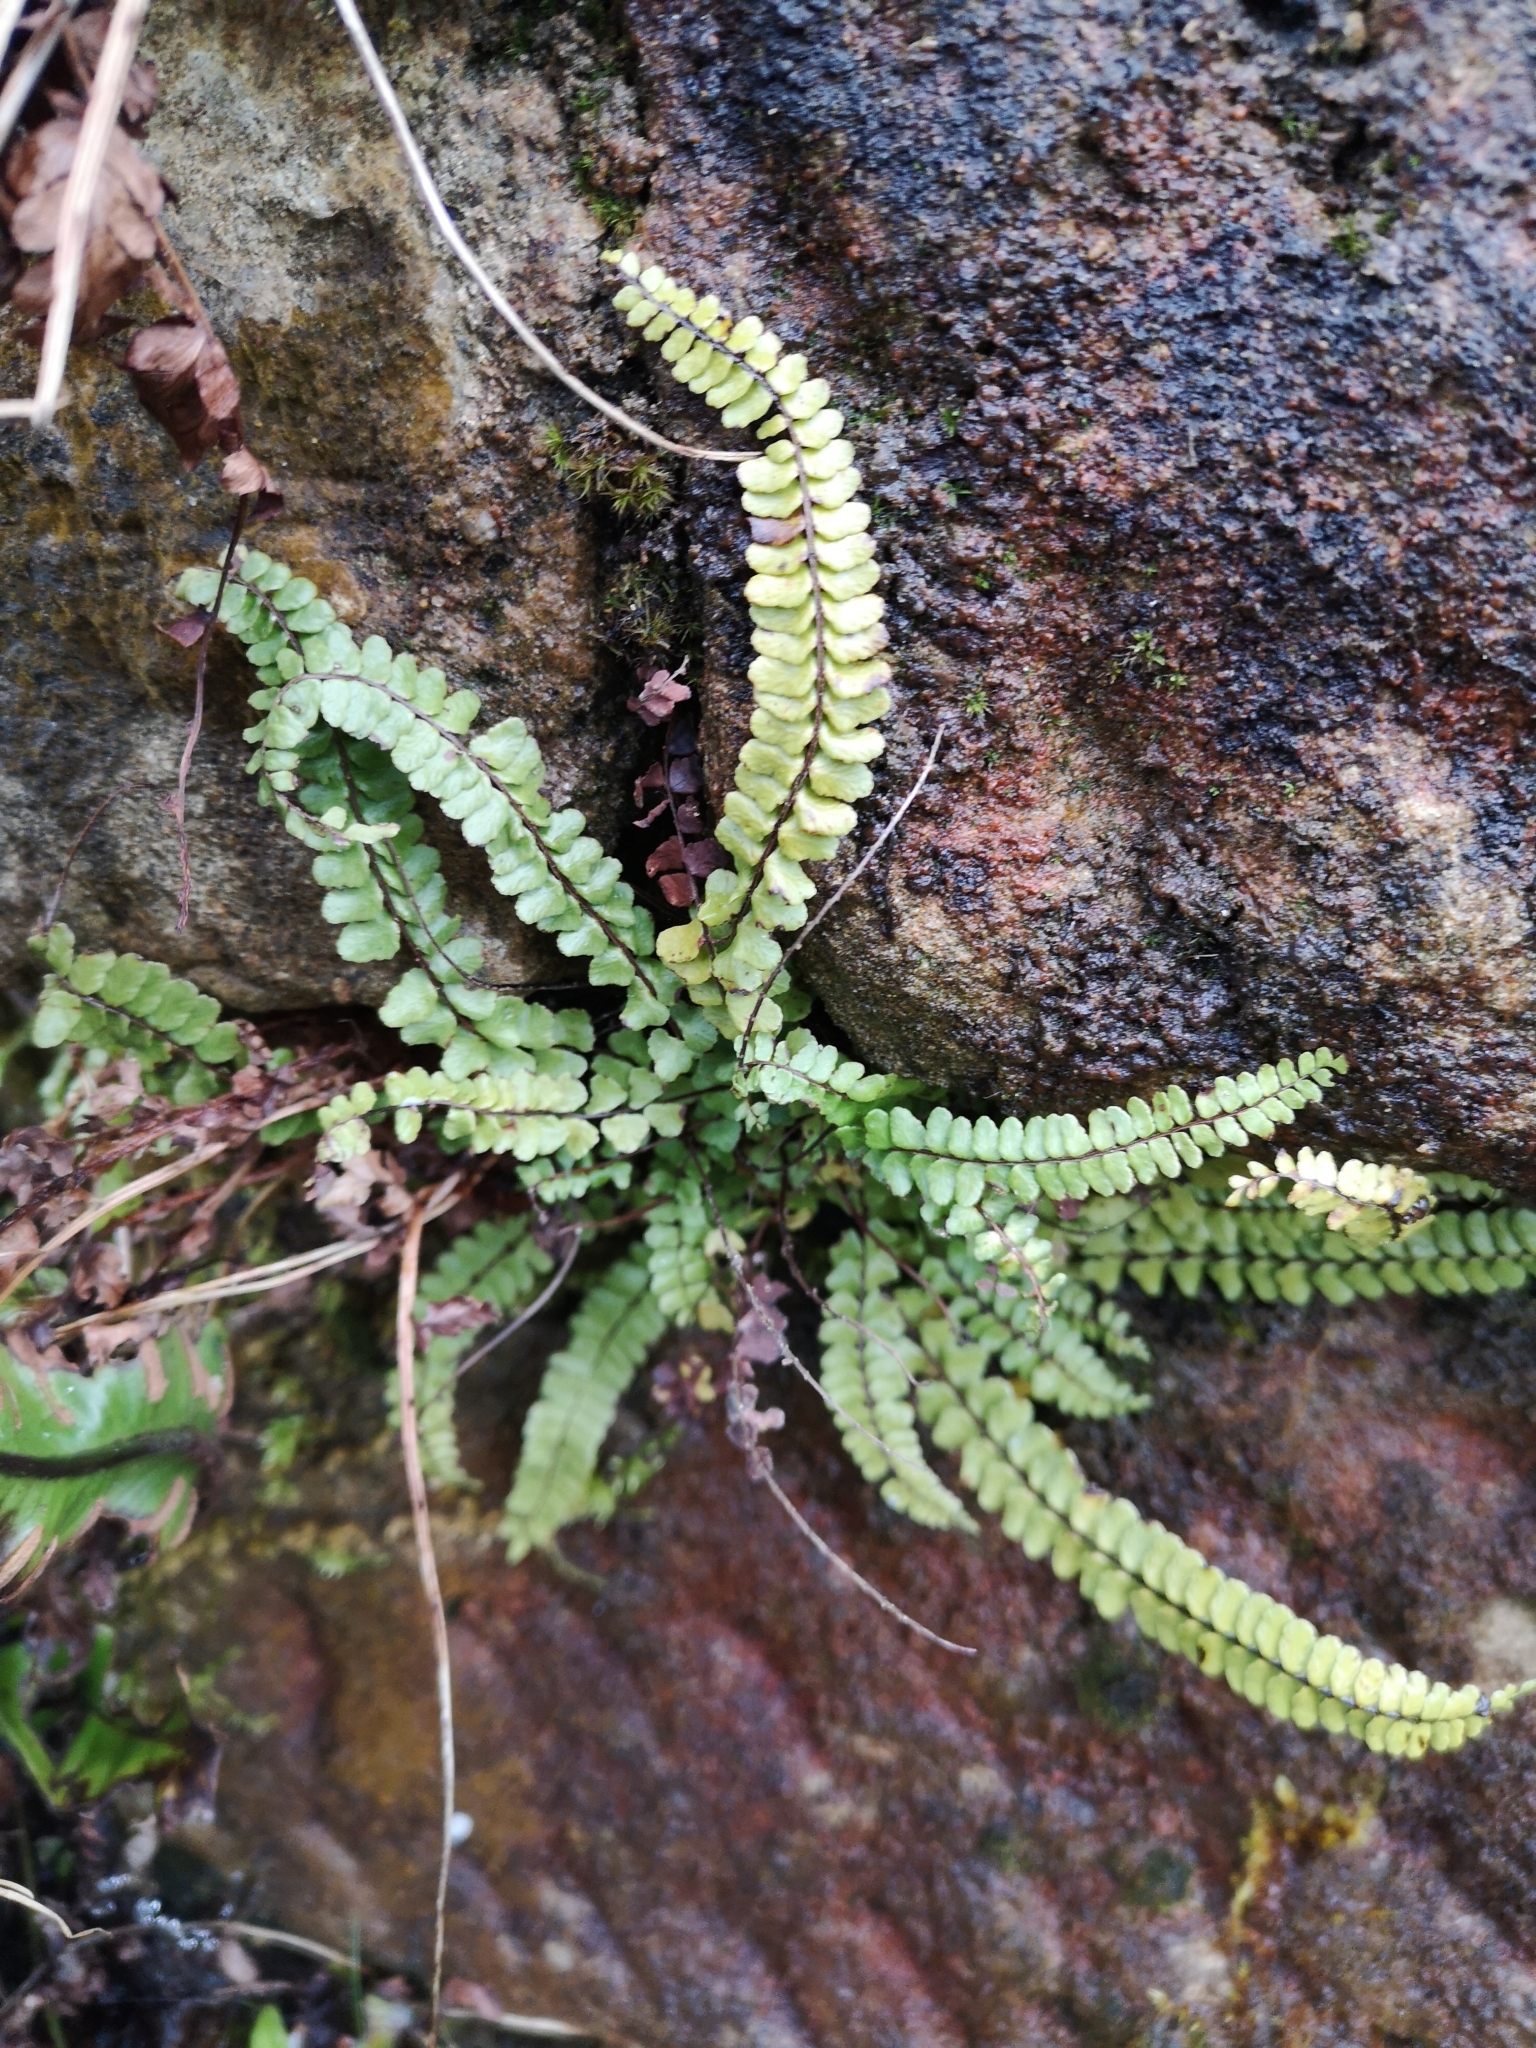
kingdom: Plantae
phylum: Tracheophyta
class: Polypodiopsida
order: Polypodiales
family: Aspleniaceae
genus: Asplenium
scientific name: Asplenium trichomanes
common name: Maidenhair spleenwort
